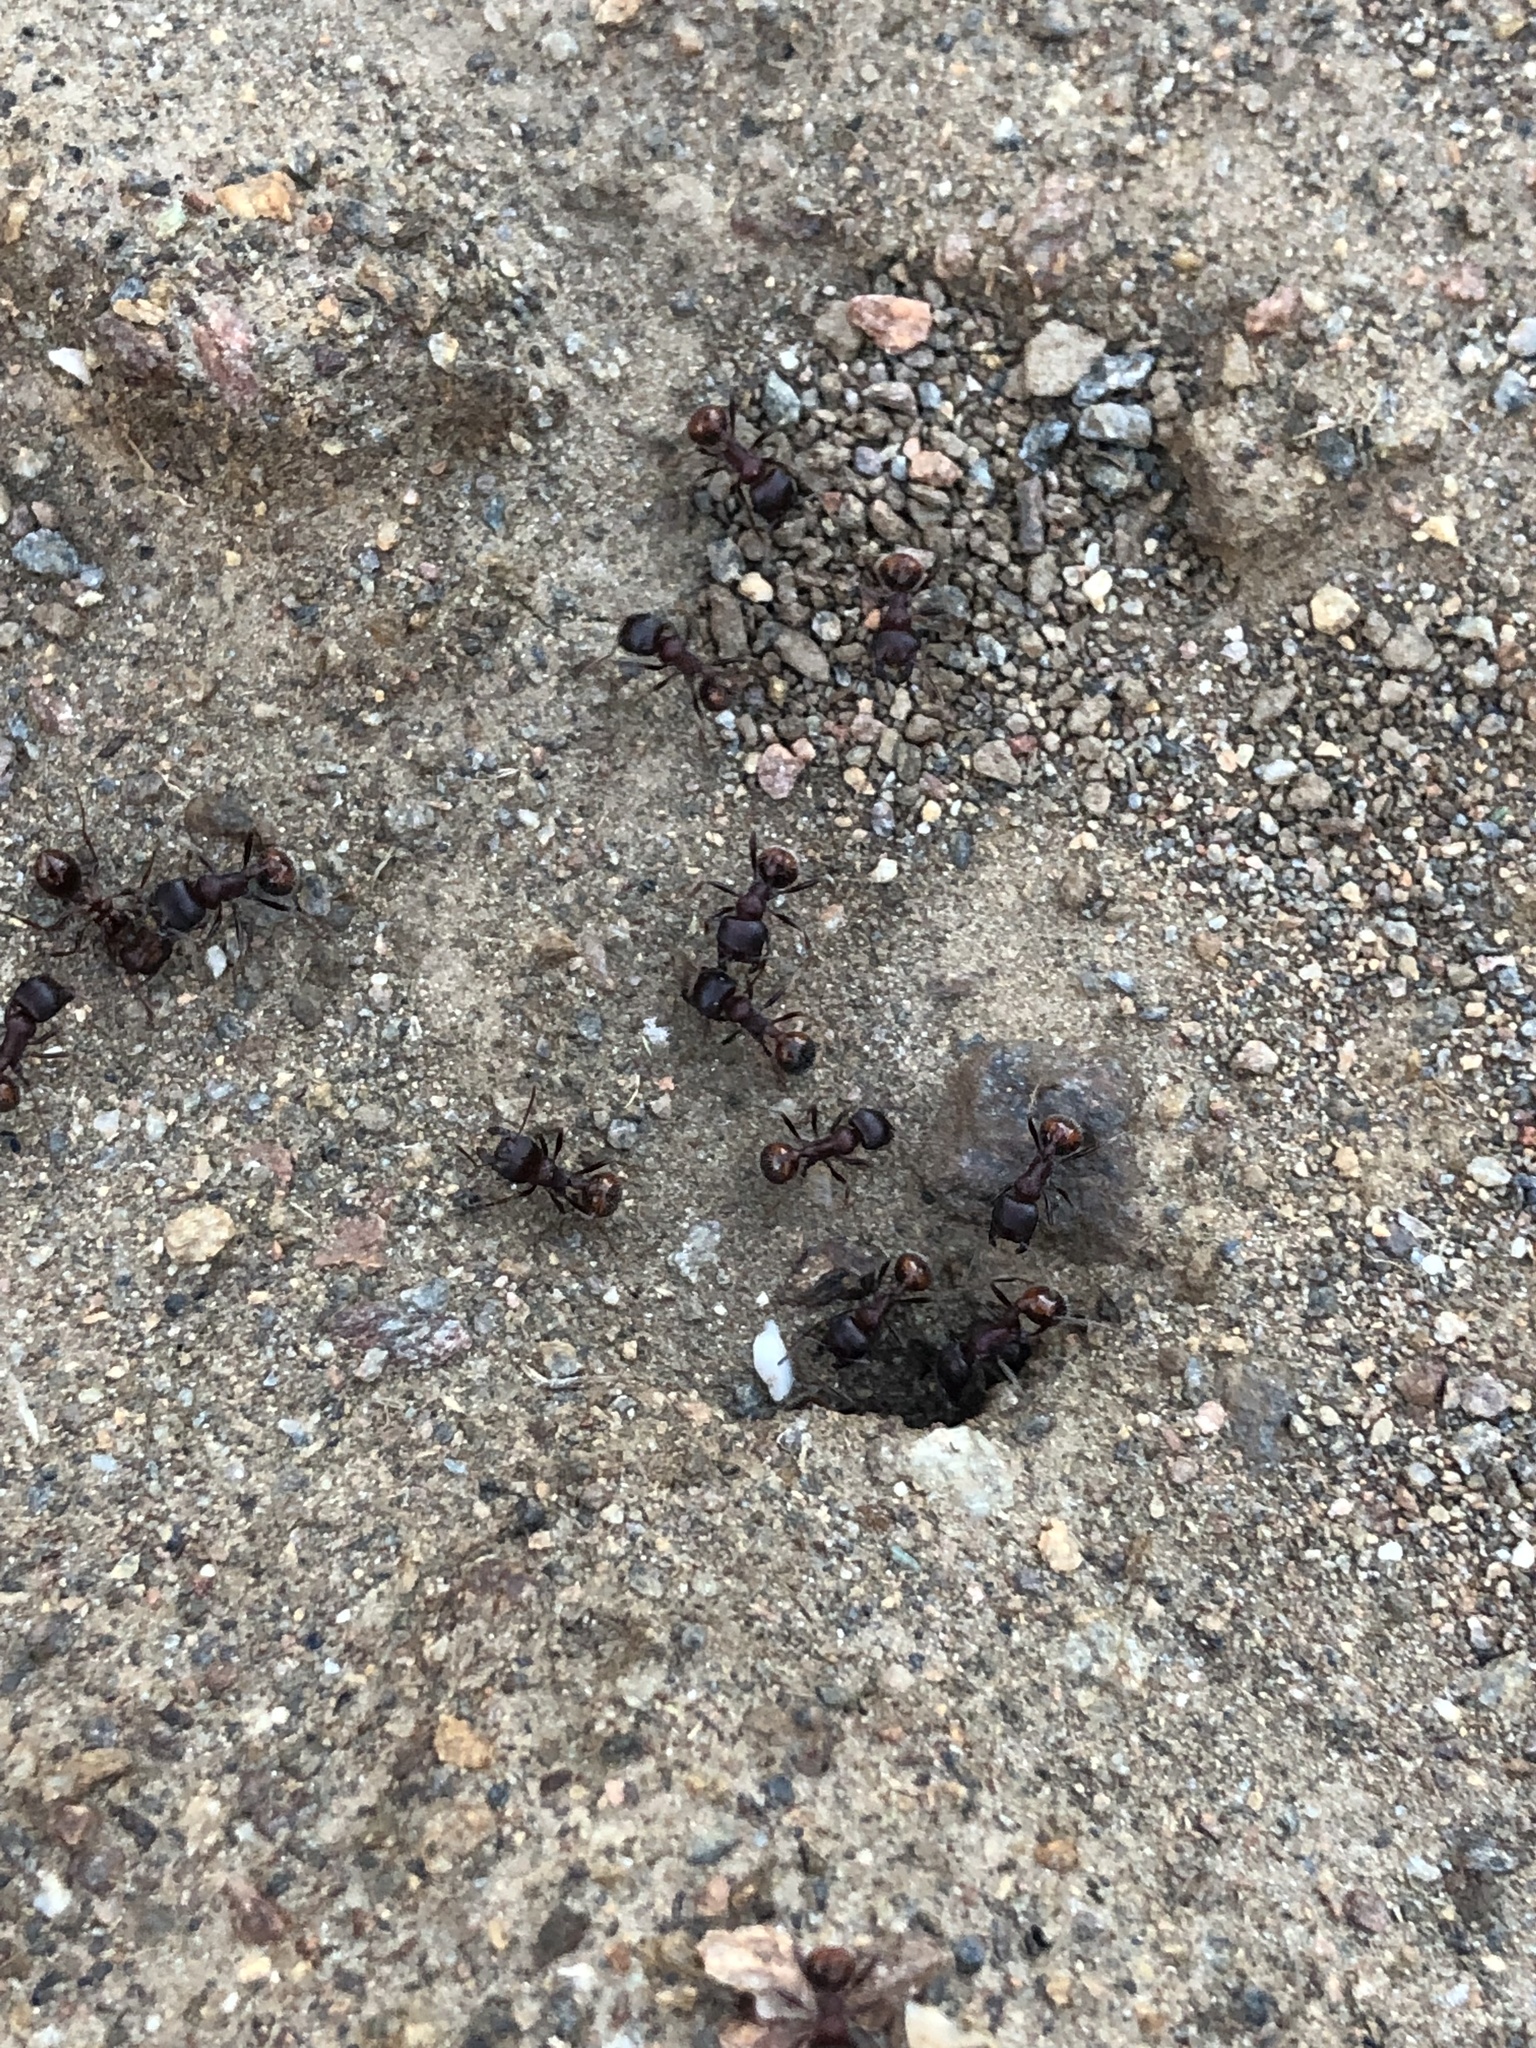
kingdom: Animalia
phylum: Arthropoda
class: Insecta
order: Hymenoptera
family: Formicidae
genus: Pogonomyrmex
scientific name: Pogonomyrmex rugosus
